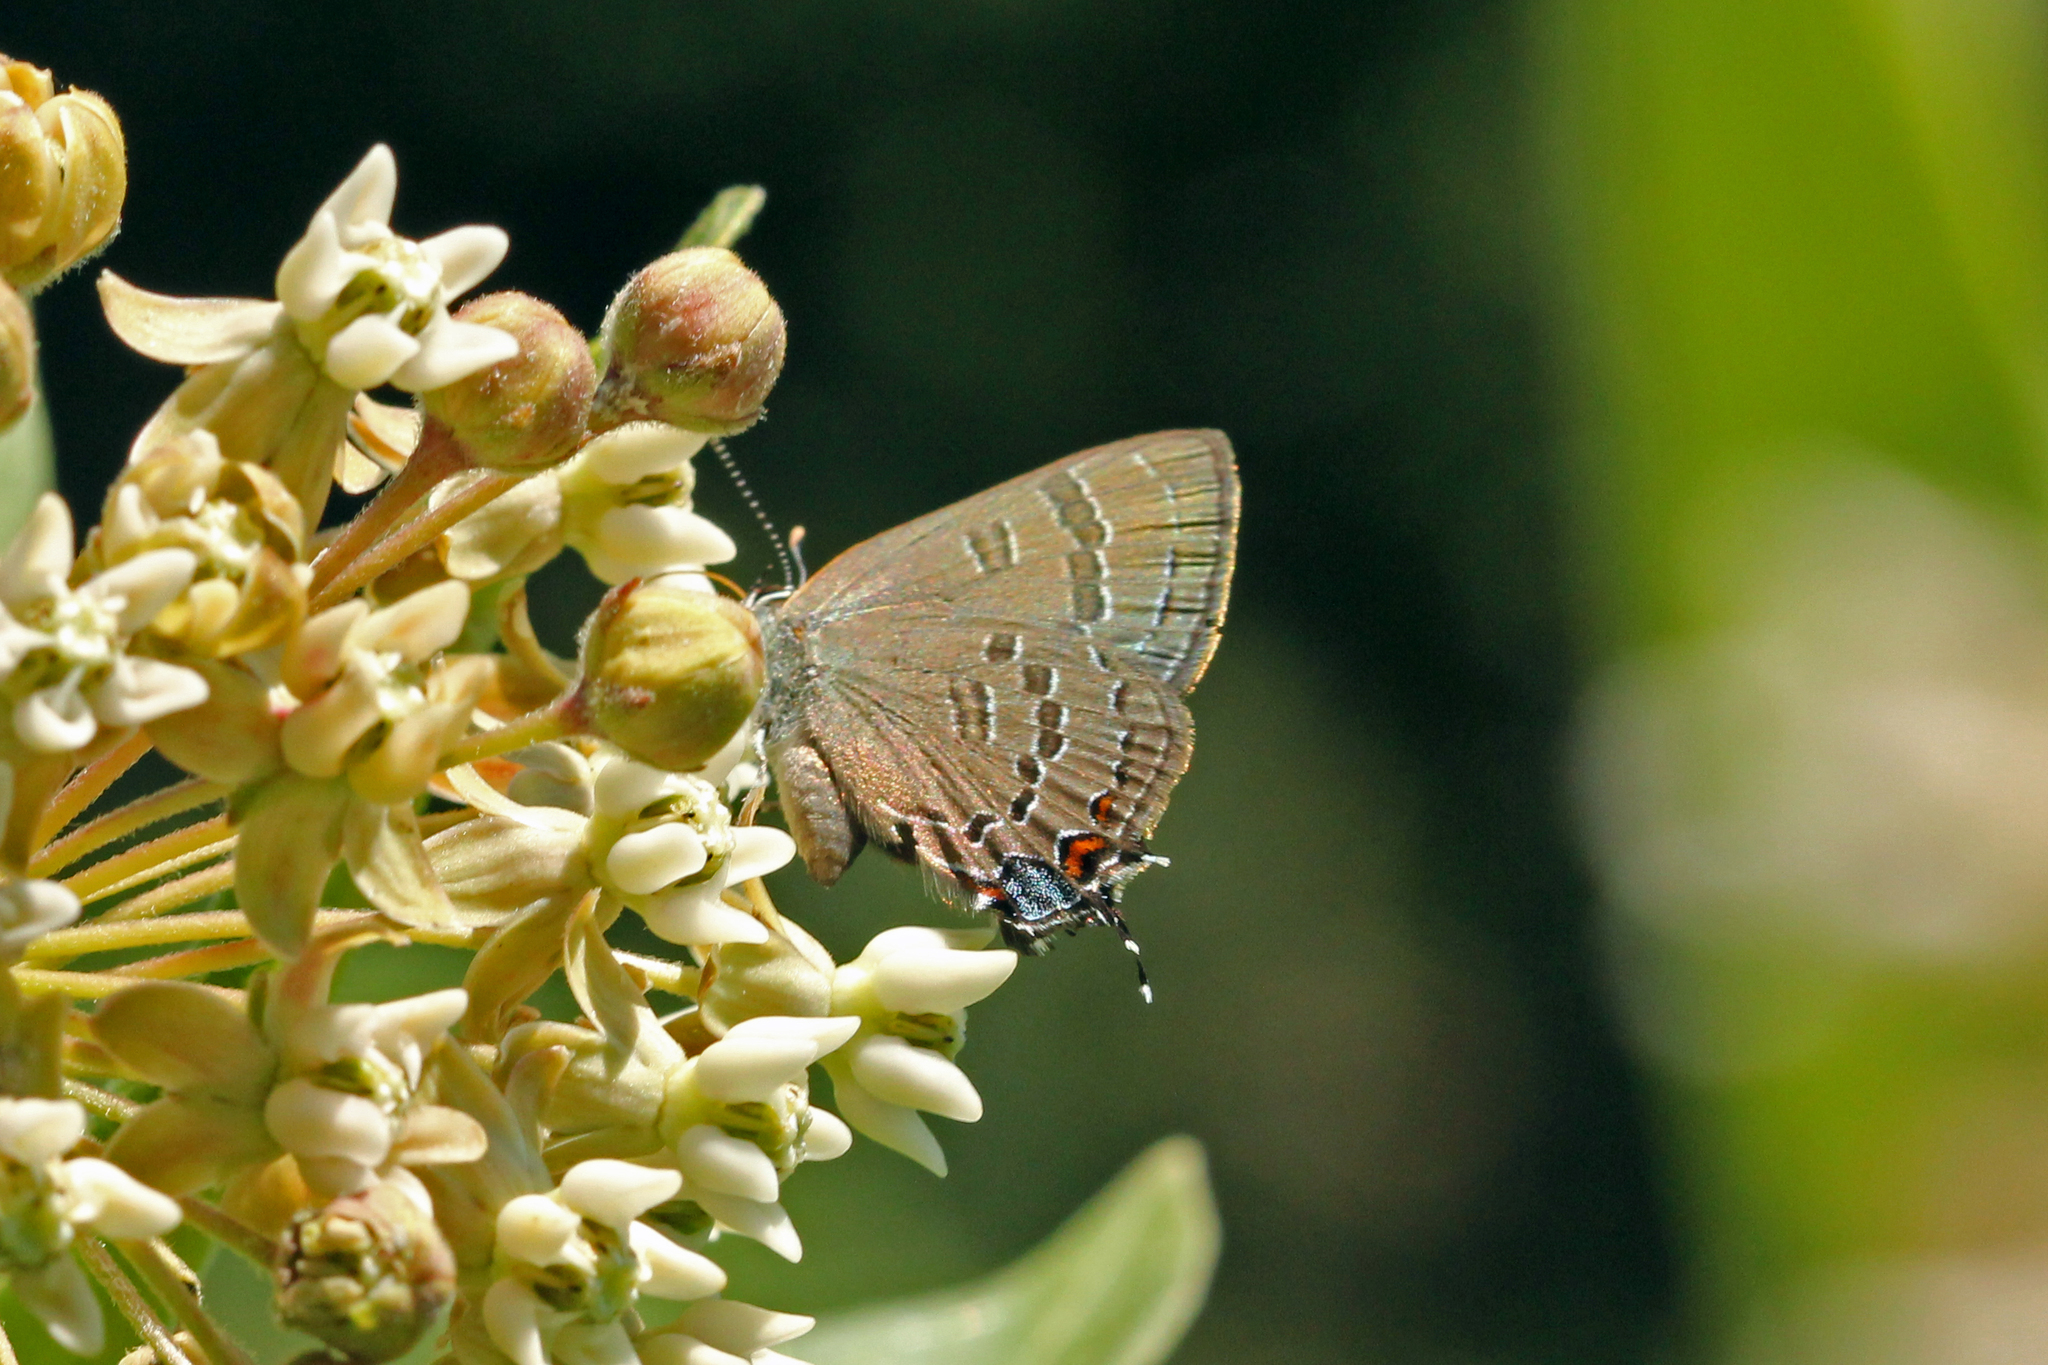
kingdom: Animalia
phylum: Arthropoda
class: Insecta
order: Lepidoptera
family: Lycaenidae
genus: Satyrium
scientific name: Satyrium calanus
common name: Banded hairstreak
